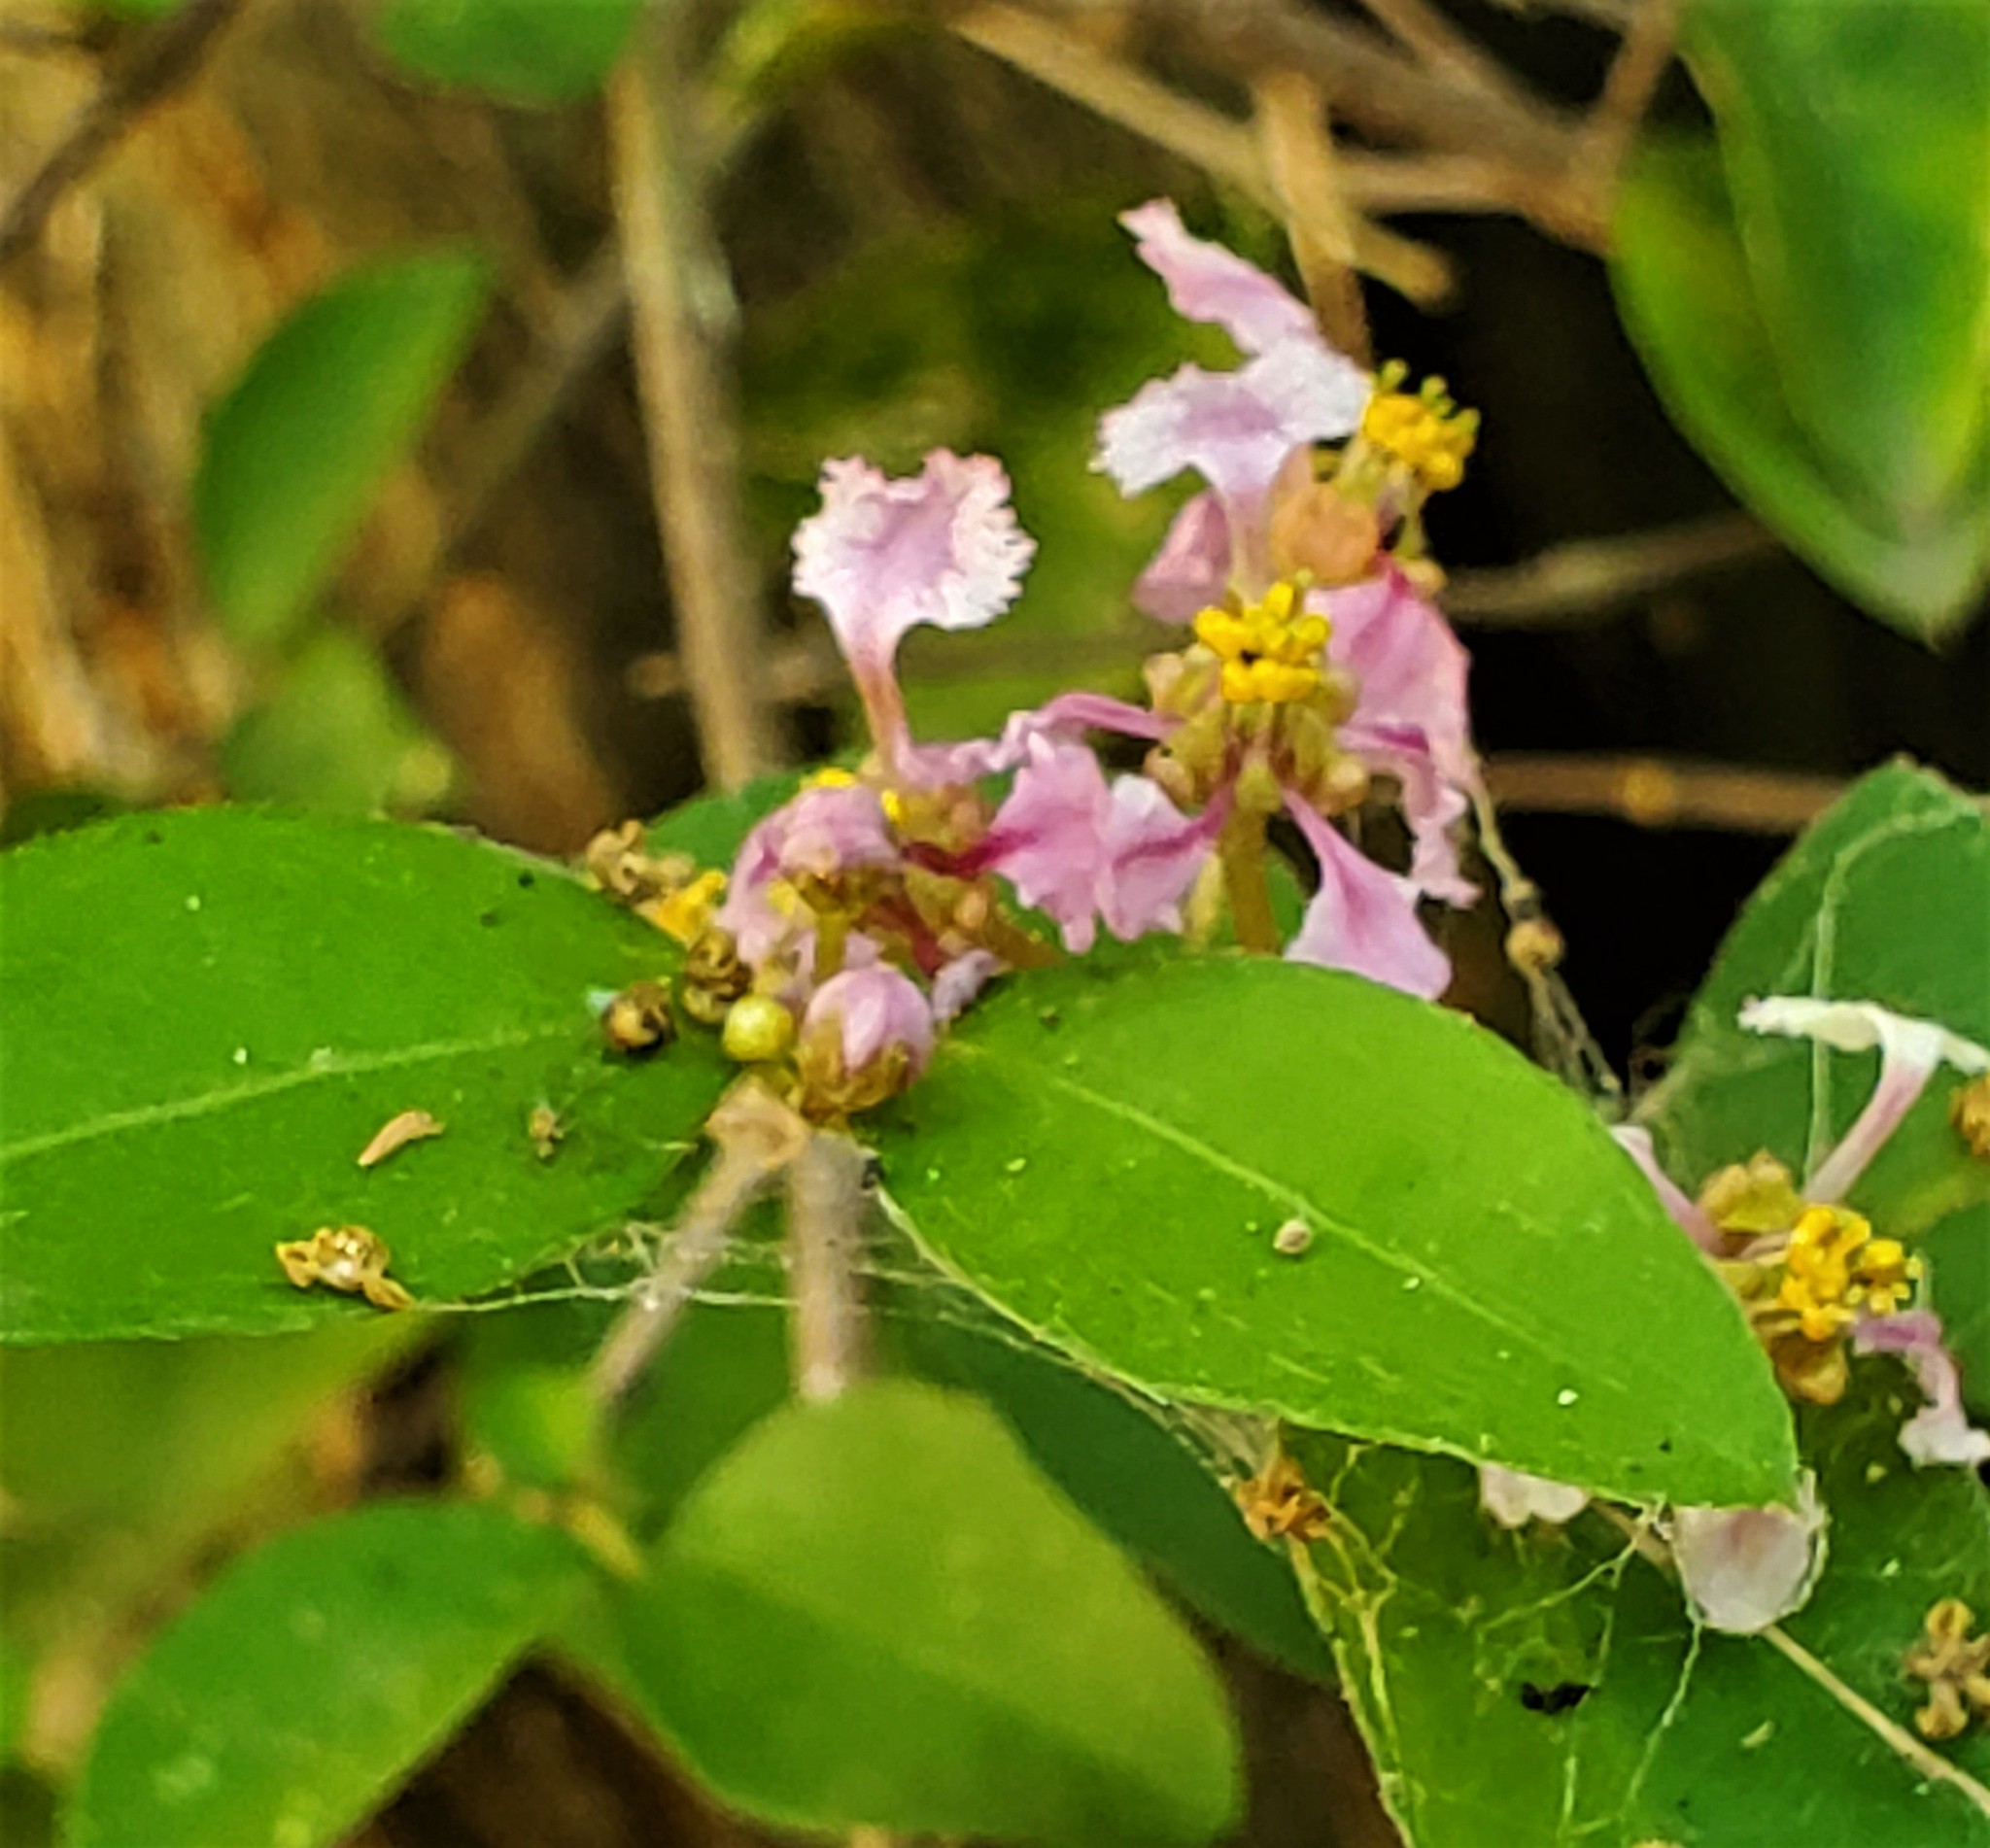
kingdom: Plantae
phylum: Tracheophyta
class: Magnoliopsida
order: Malpighiales
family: Malpighiaceae
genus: Malpighia
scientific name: Malpighia glabra
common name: Barbados cherry
